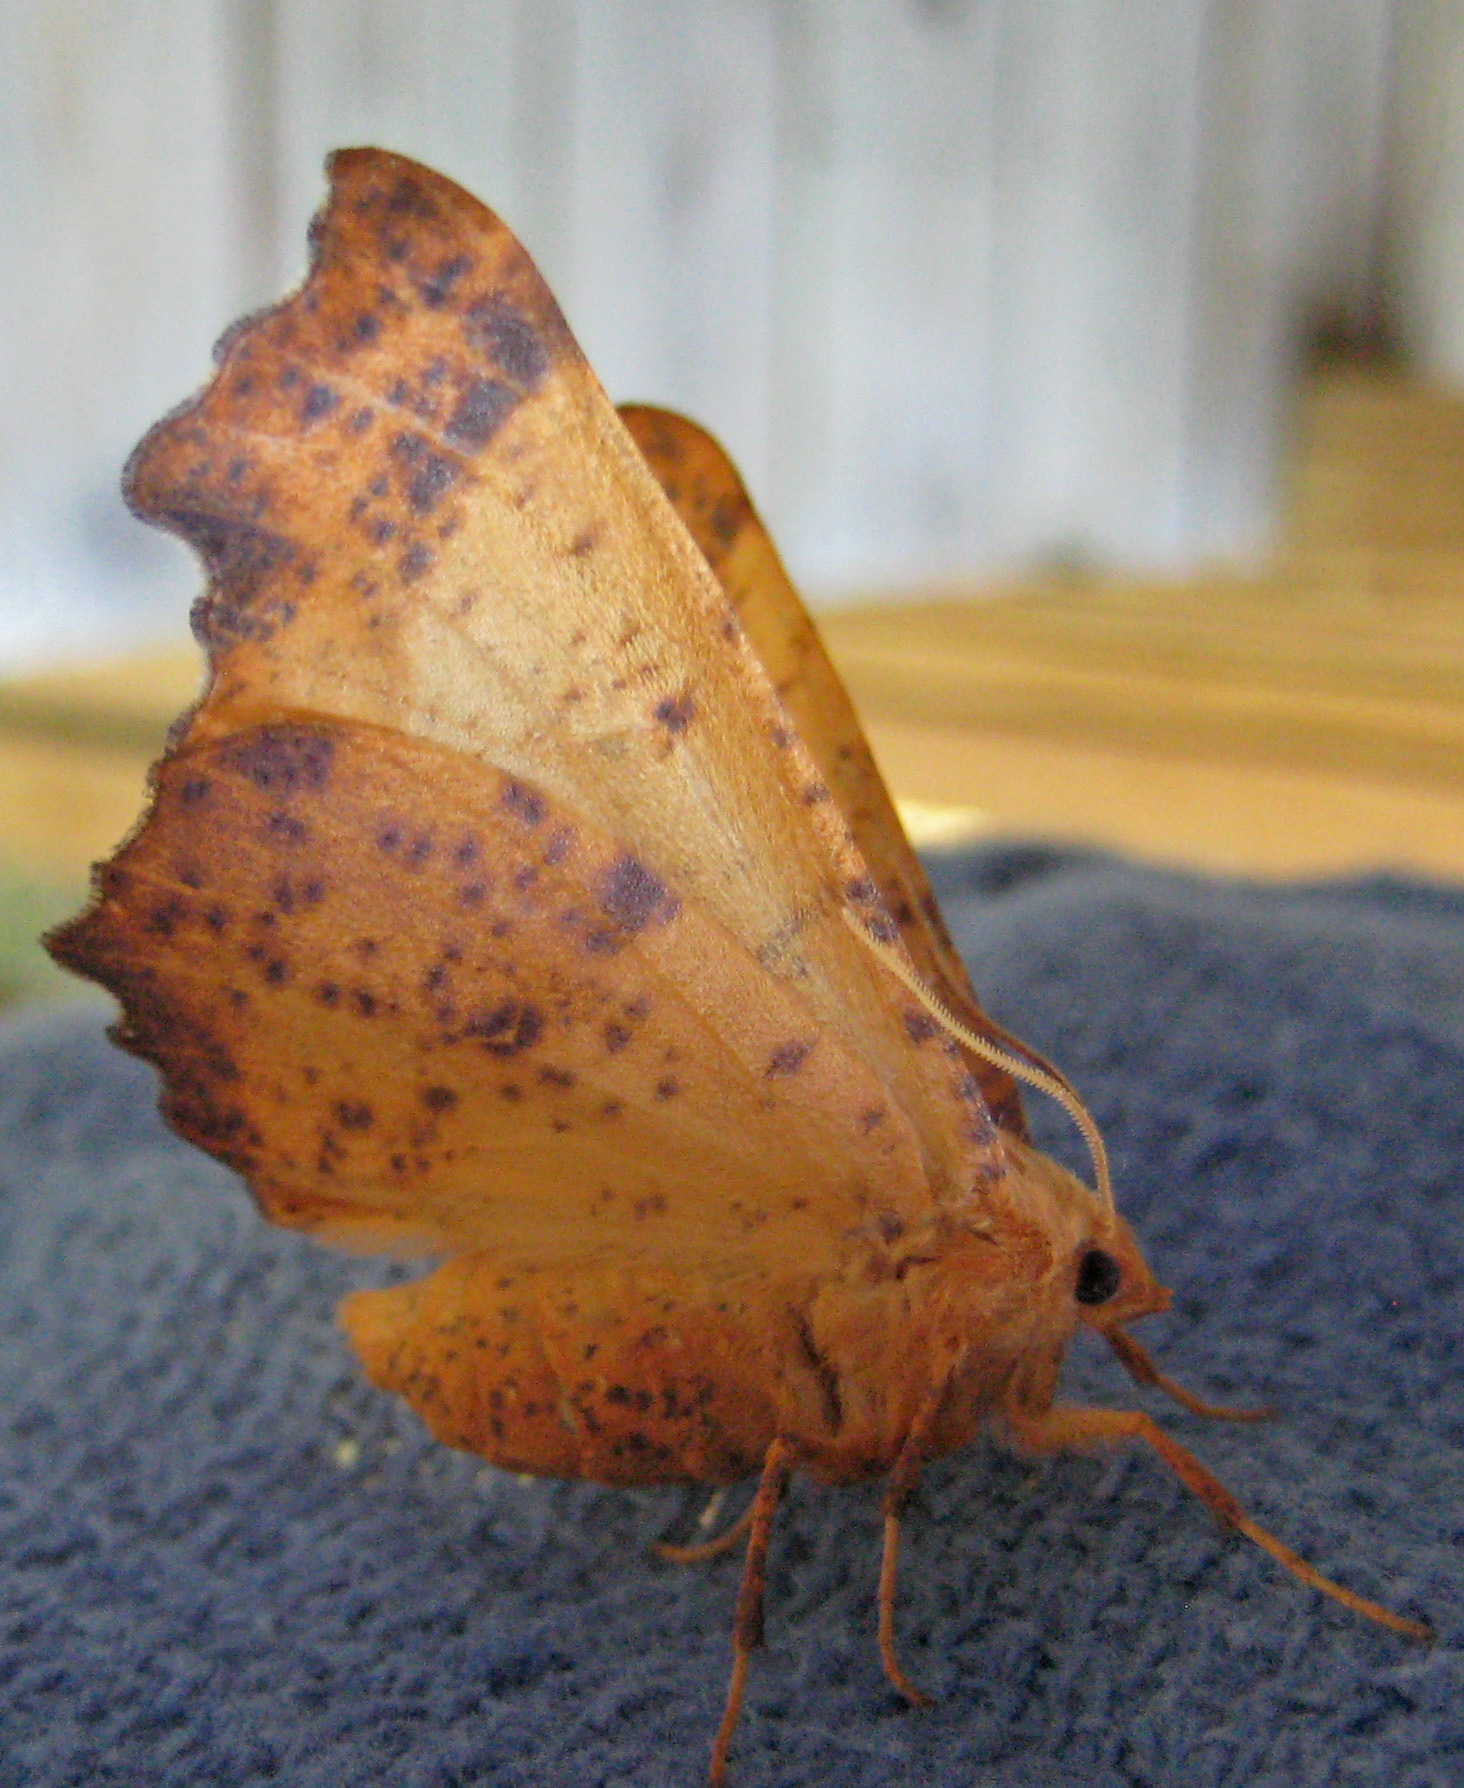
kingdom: Animalia
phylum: Arthropoda
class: Insecta
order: Lepidoptera
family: Geometridae
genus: Ennomos
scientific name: Ennomos magnaria
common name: Maple spanworm
